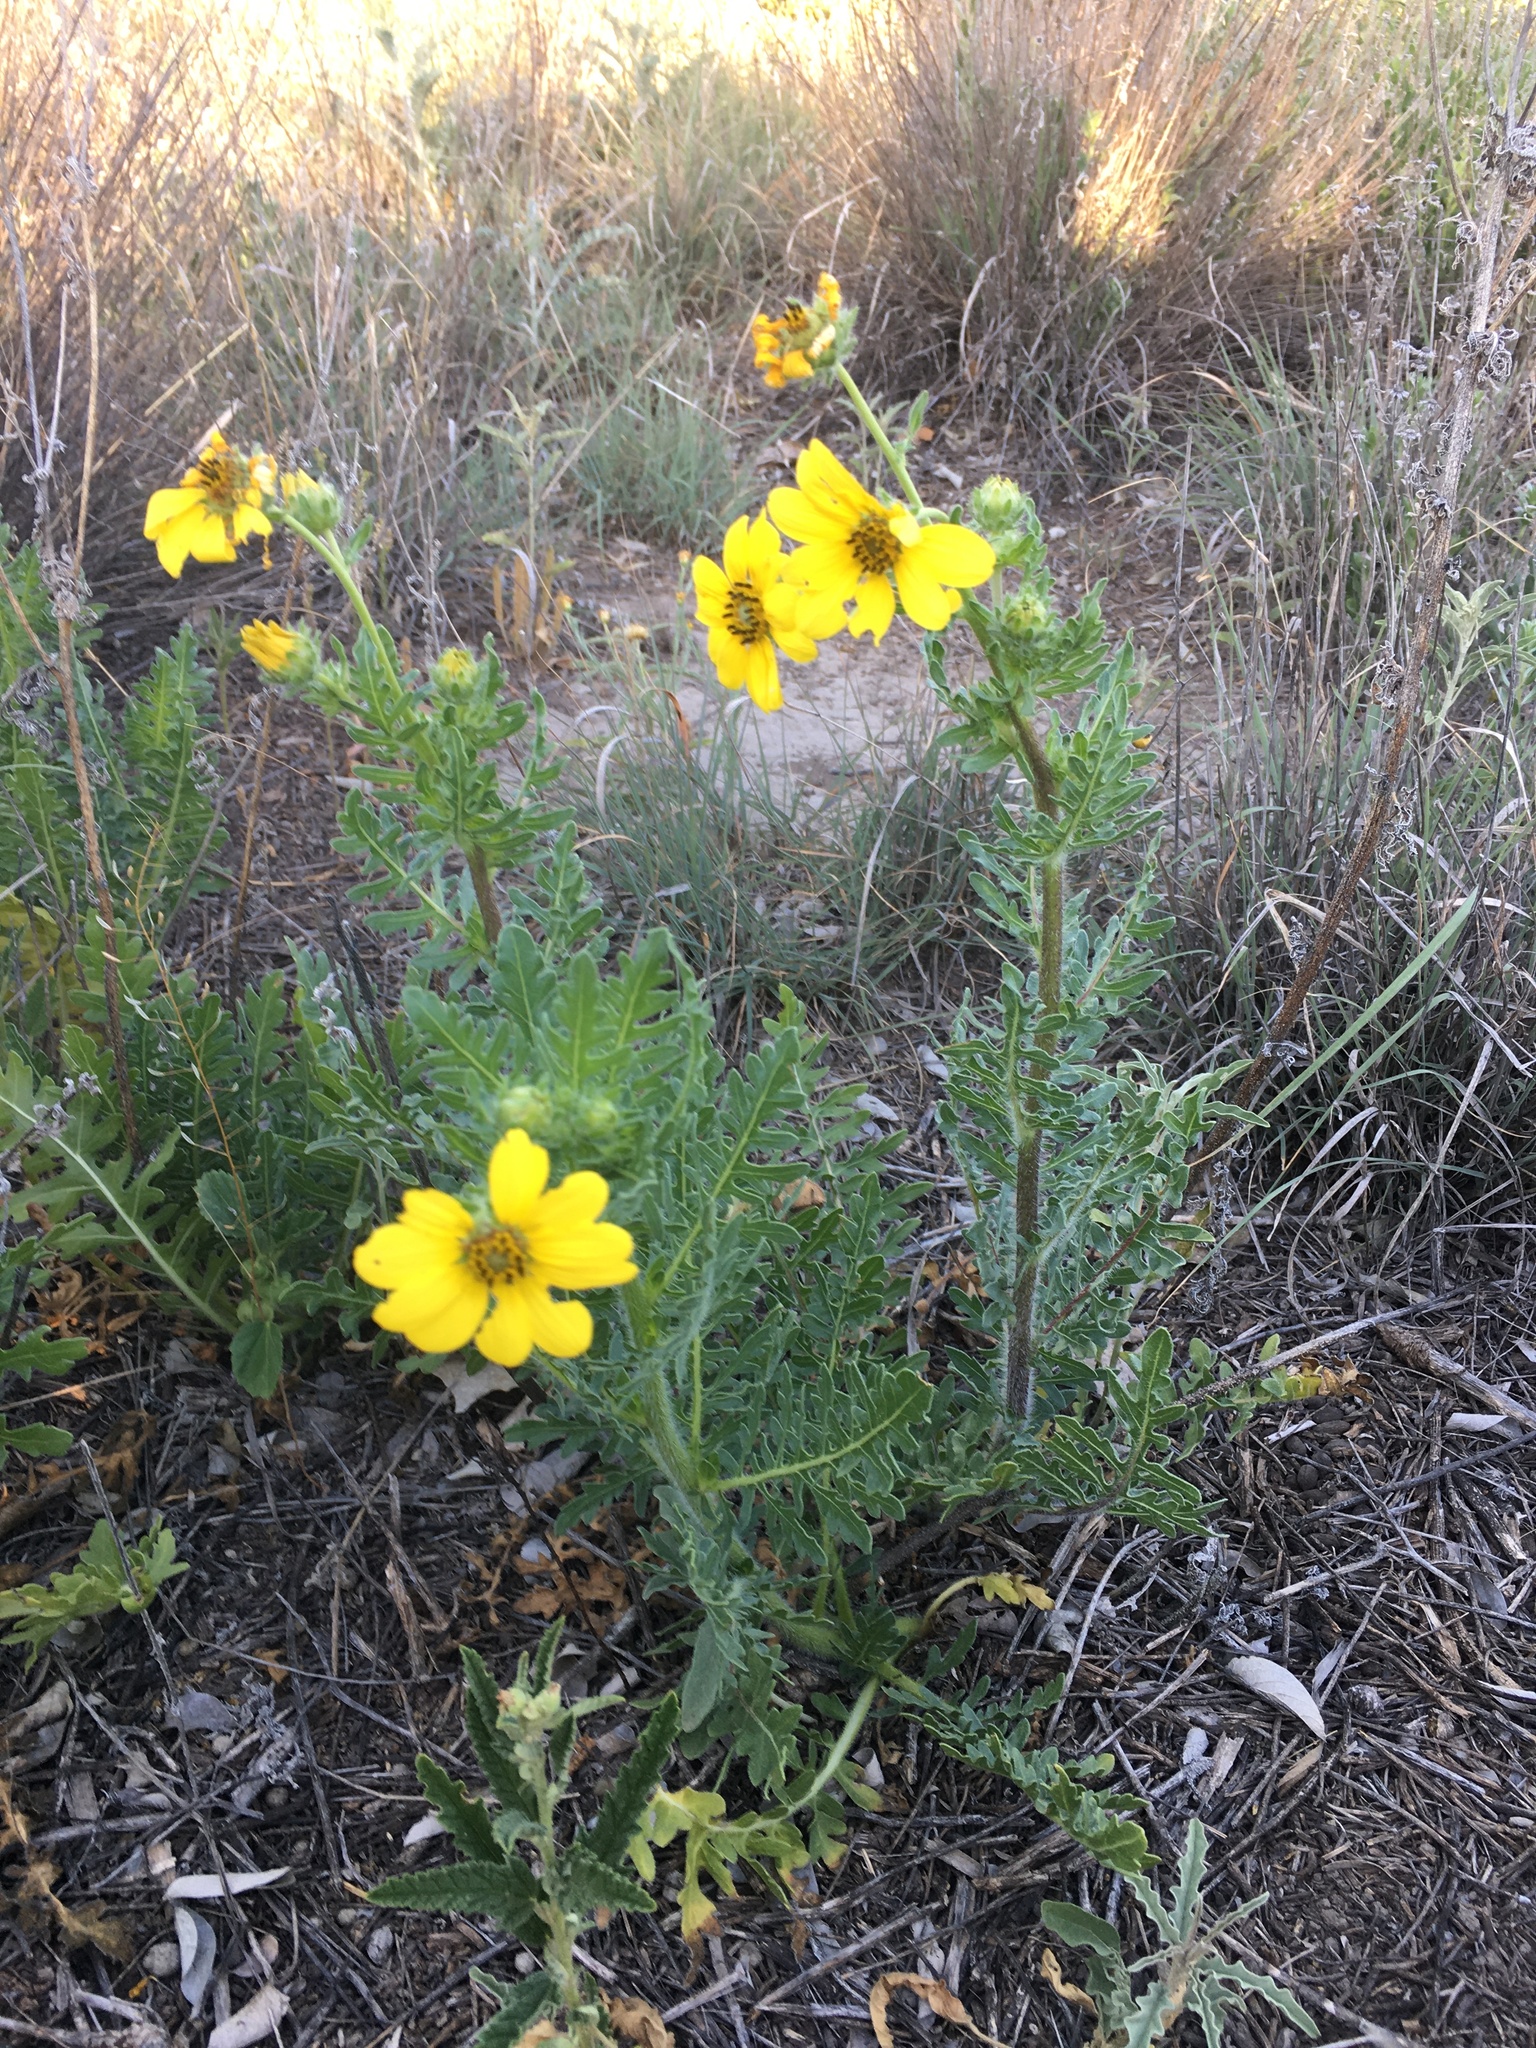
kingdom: Plantae
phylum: Tracheophyta
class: Magnoliopsida
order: Asterales
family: Asteraceae
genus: Engelmannia
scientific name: Engelmannia peristenia
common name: Engelmann's daisy
